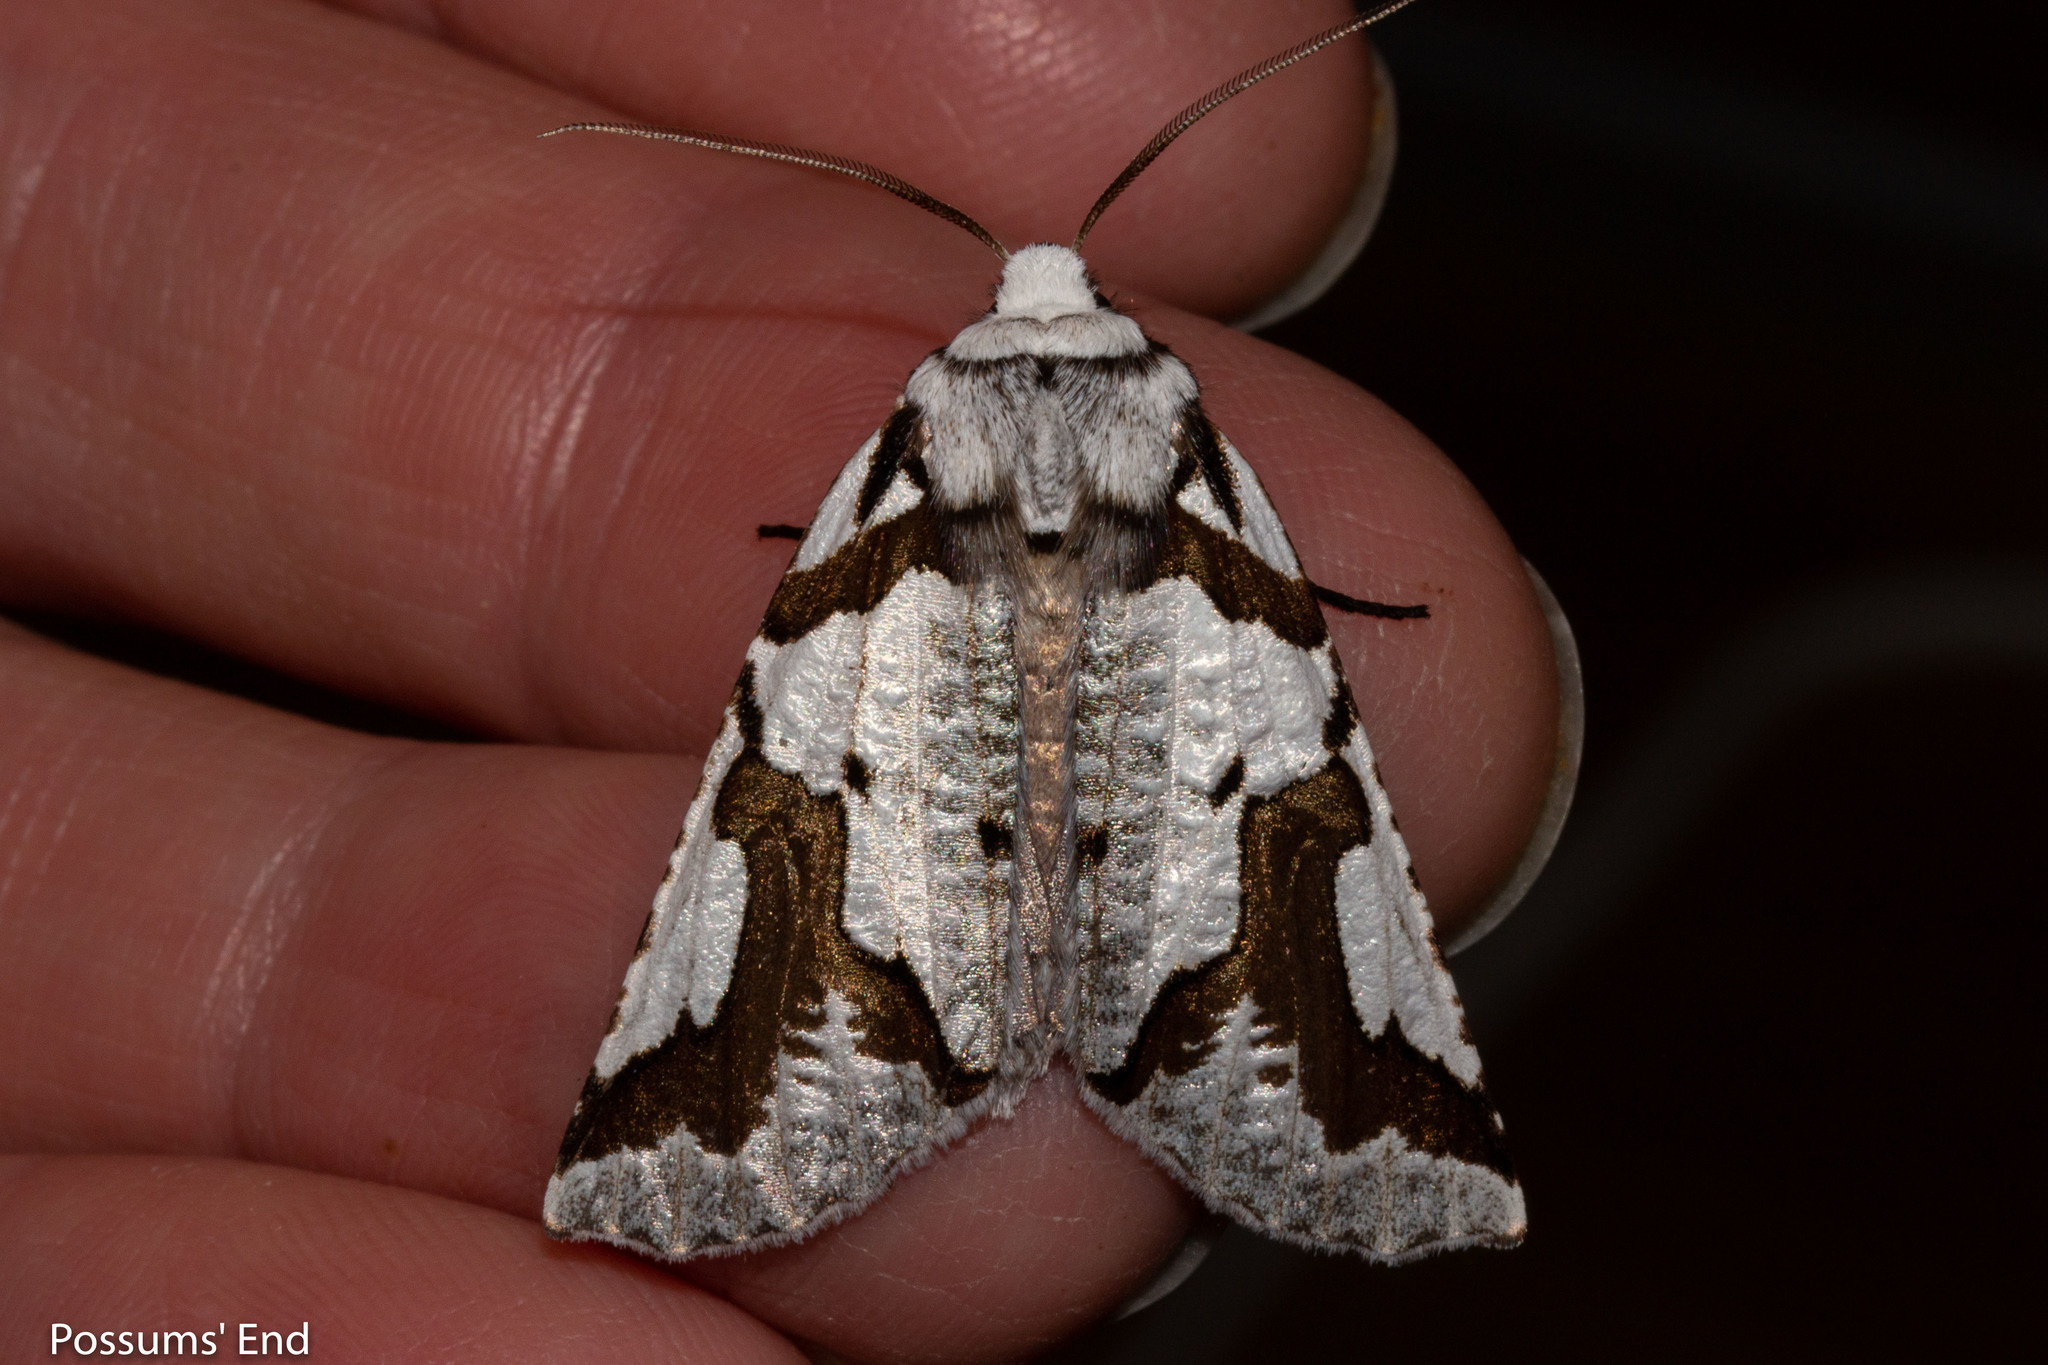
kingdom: Animalia
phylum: Arthropoda
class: Insecta
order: Lepidoptera
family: Geometridae
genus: Declana
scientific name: Declana
